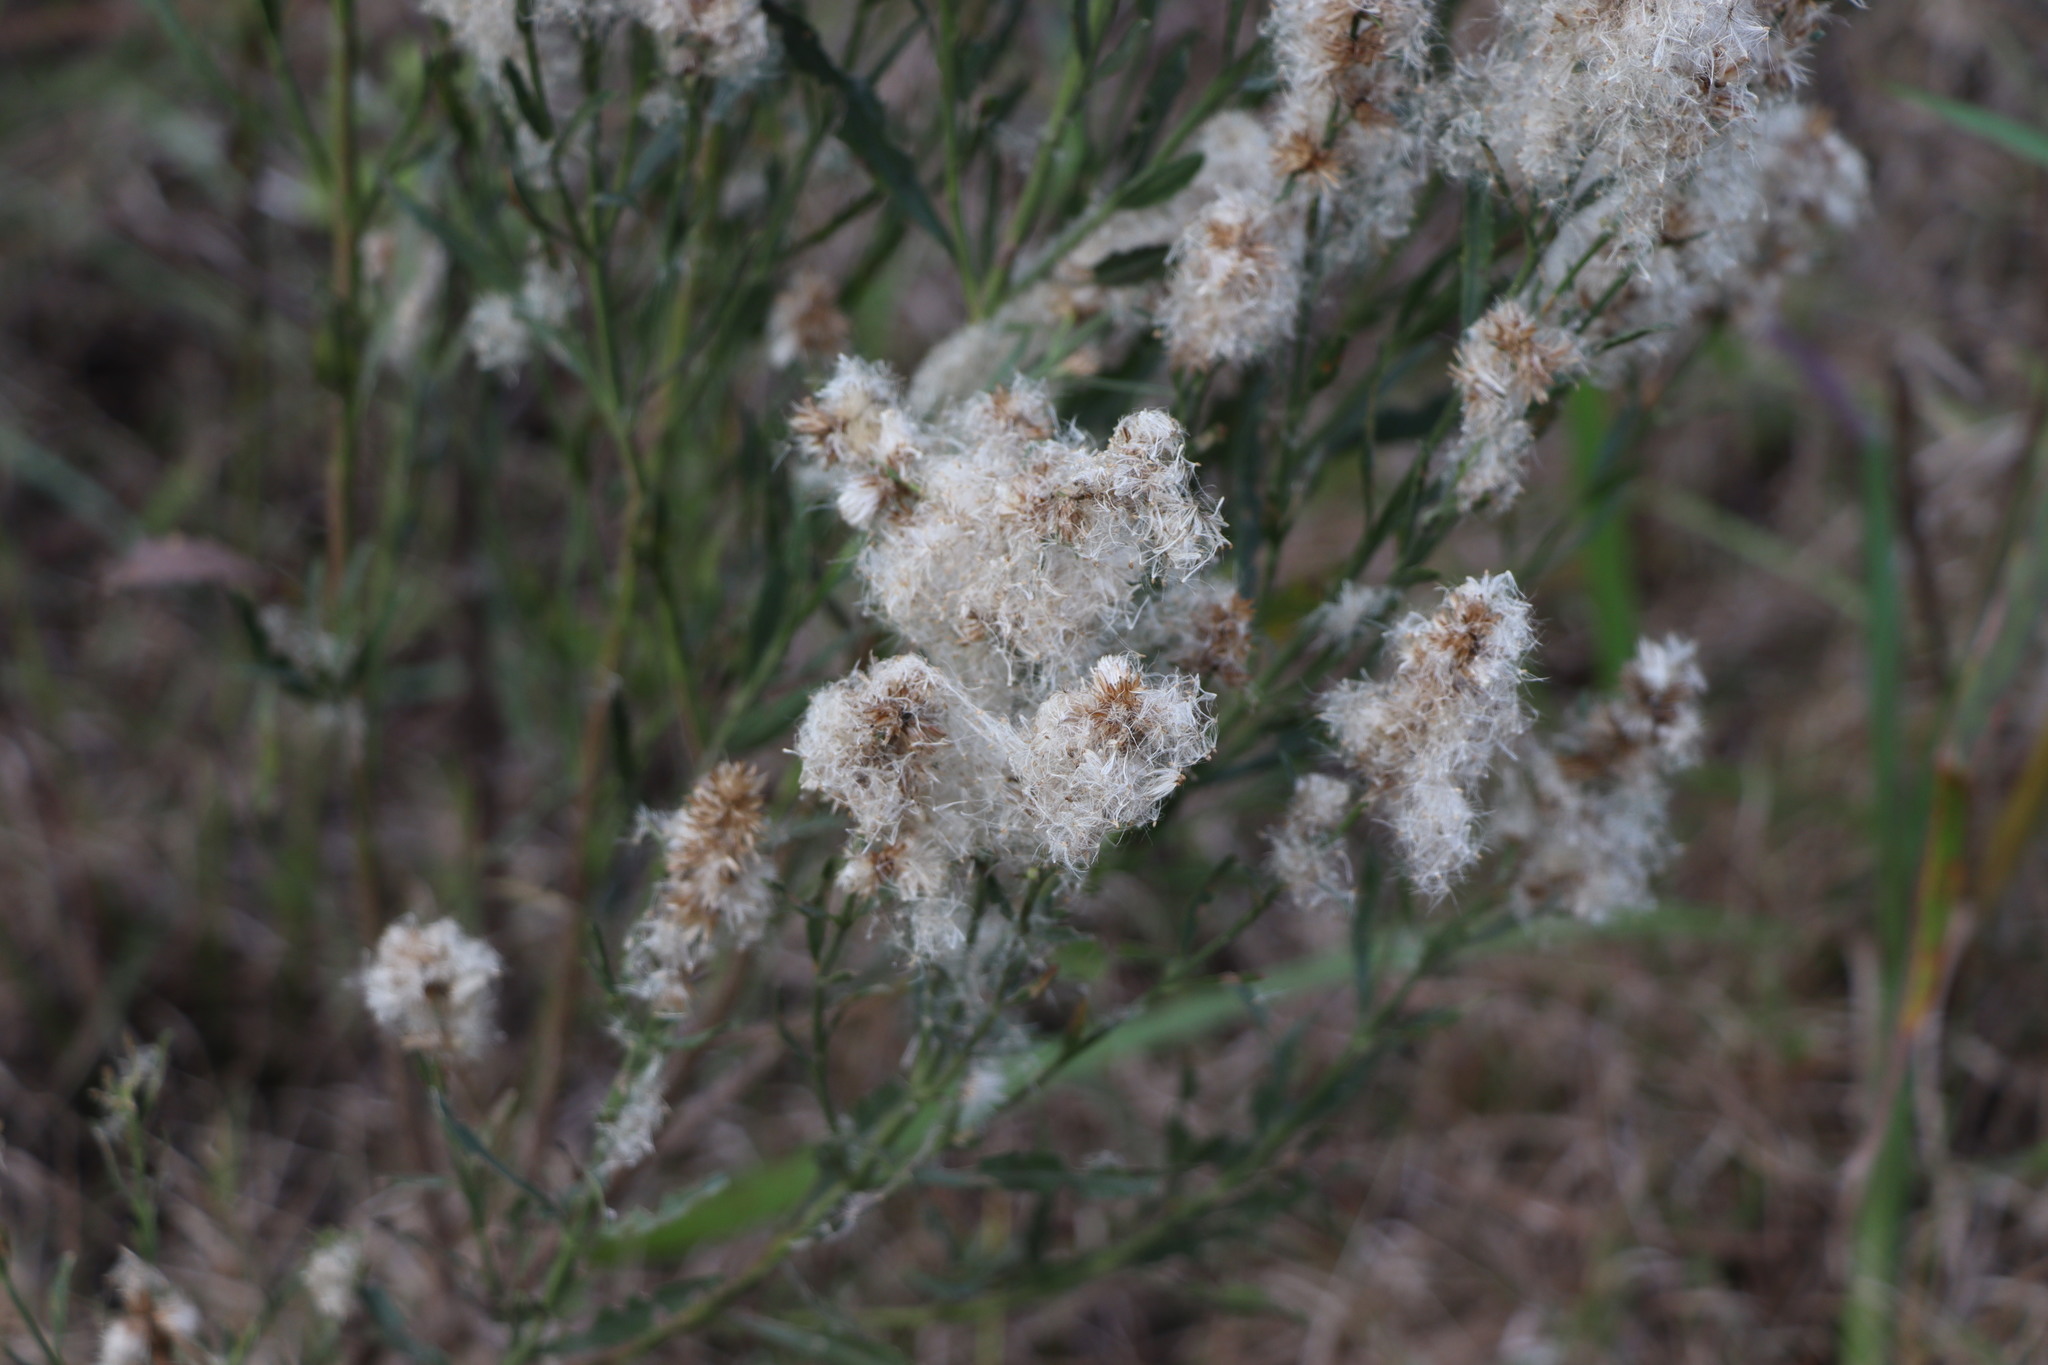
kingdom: Plantae
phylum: Tracheophyta
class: Magnoliopsida
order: Asterales
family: Asteraceae
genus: Baccharis
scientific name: Baccharis spicata
